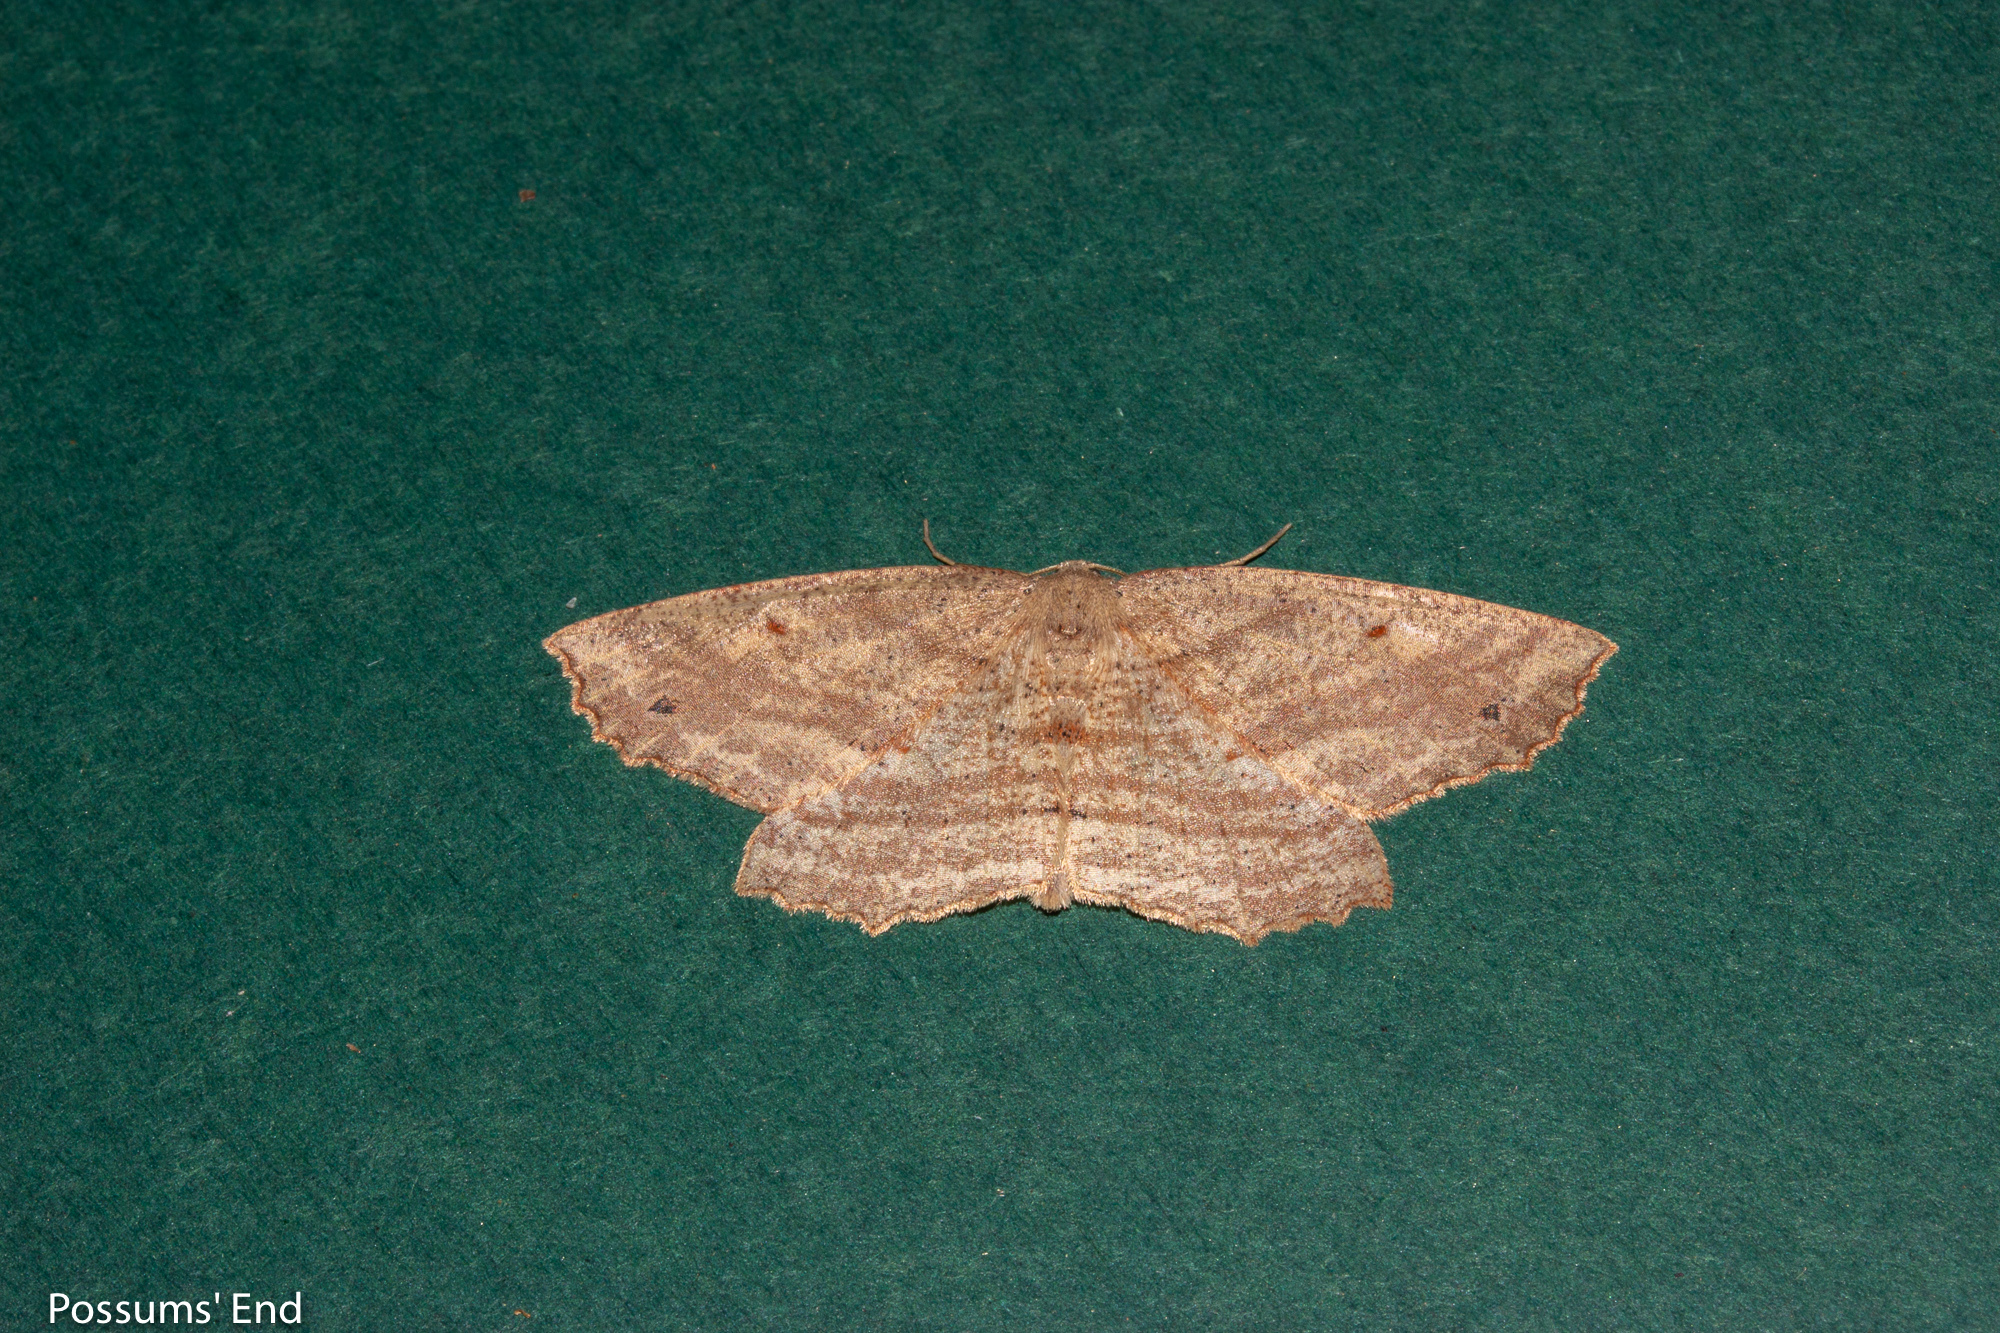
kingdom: Animalia
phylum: Arthropoda
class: Insecta
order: Lepidoptera
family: Geometridae
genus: Xyridacma
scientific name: Xyridacma veronicae
